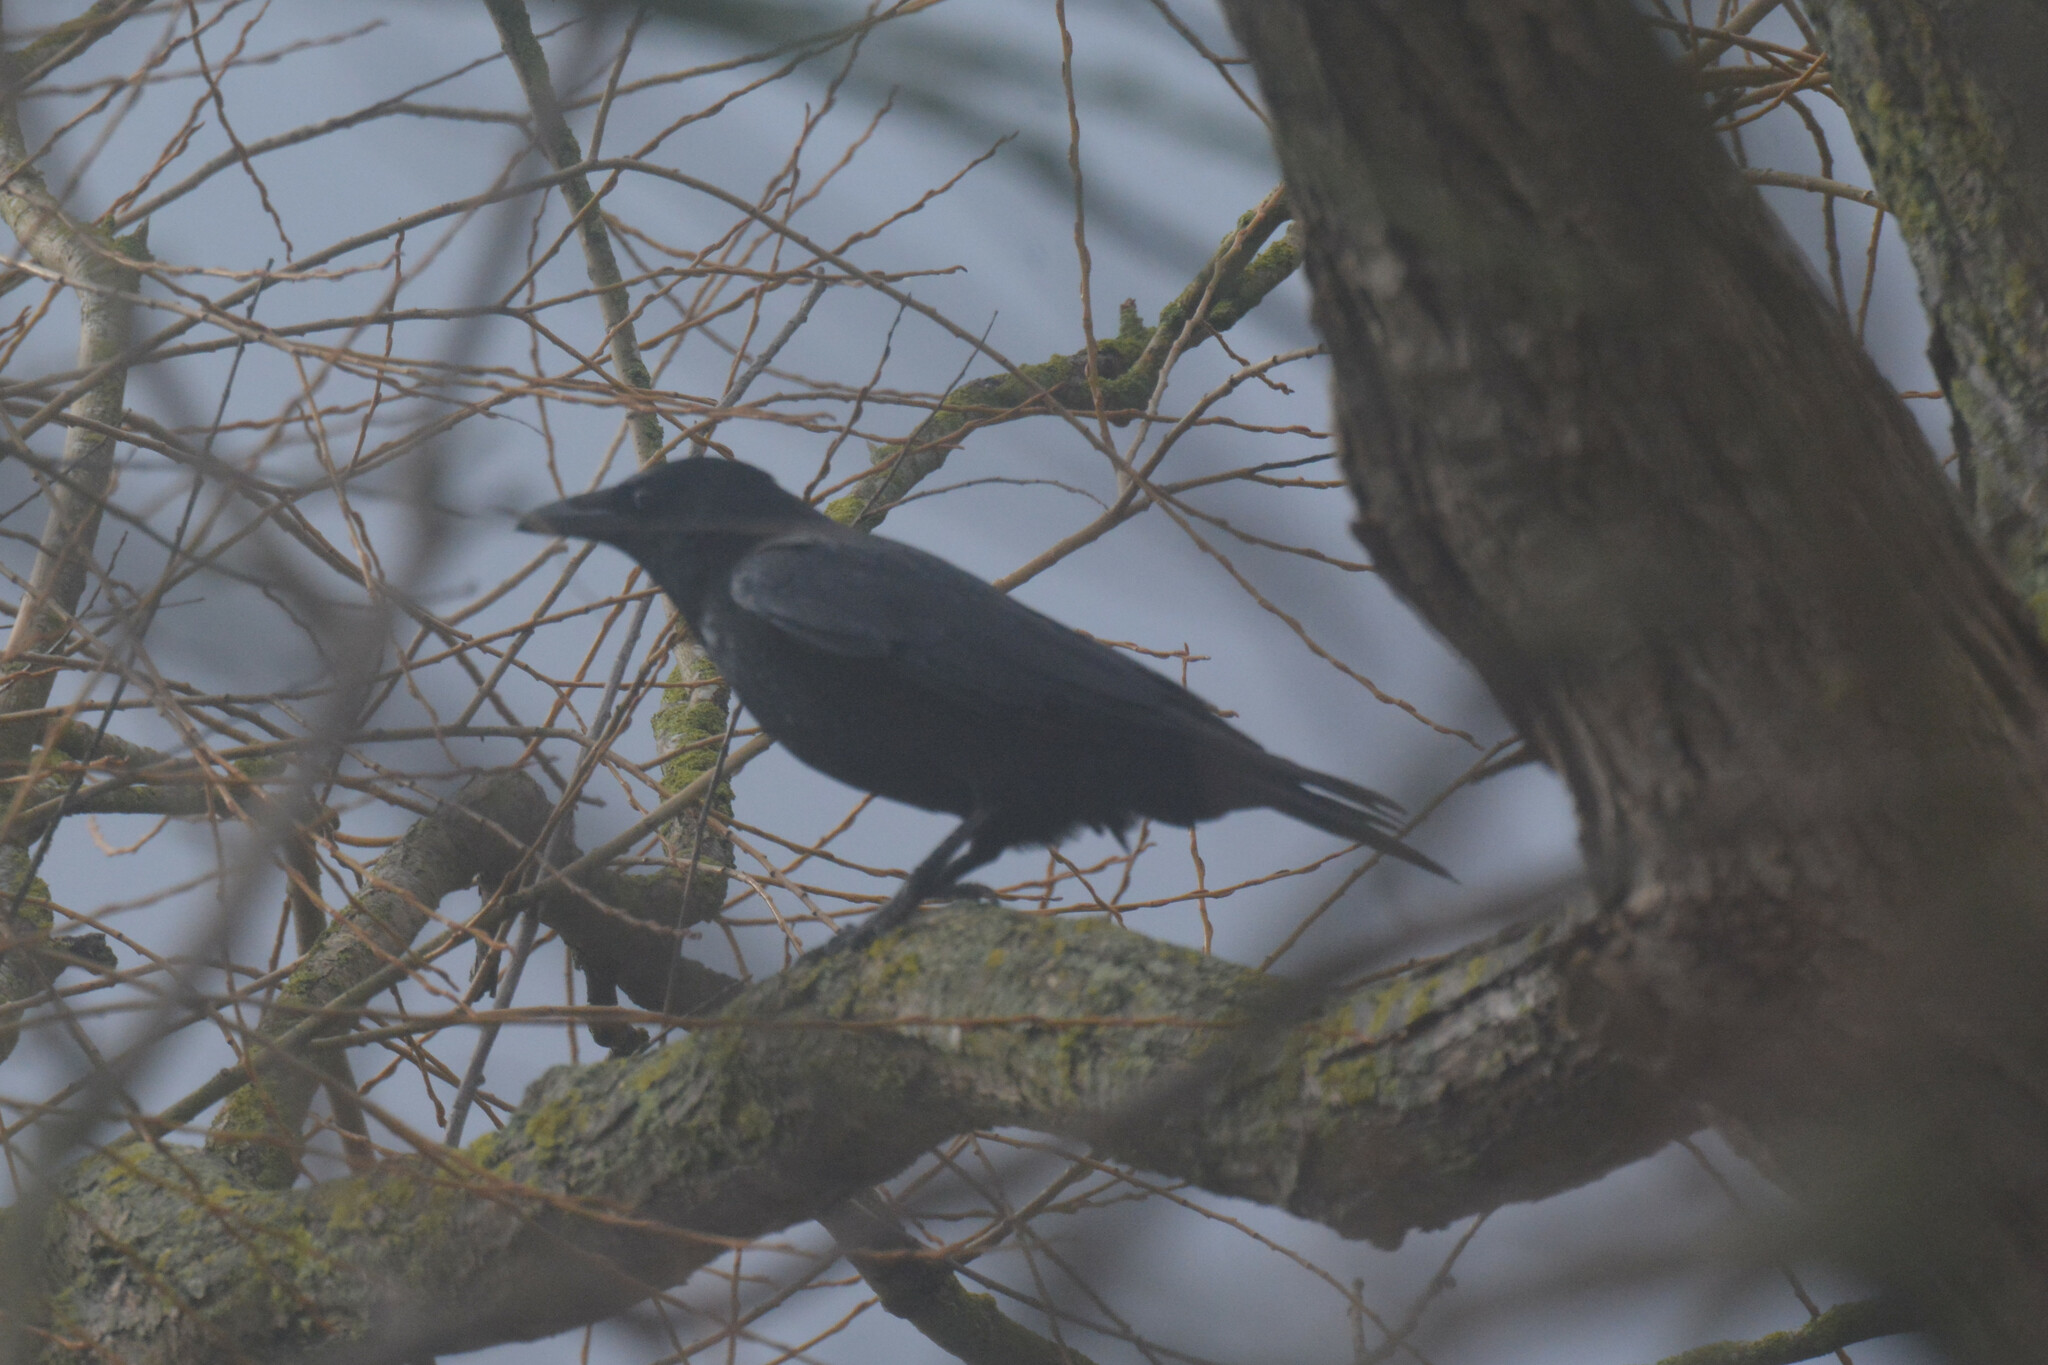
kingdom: Animalia
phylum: Chordata
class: Aves
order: Passeriformes
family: Corvidae
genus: Corvus
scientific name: Corvus corone
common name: Carrion crow
